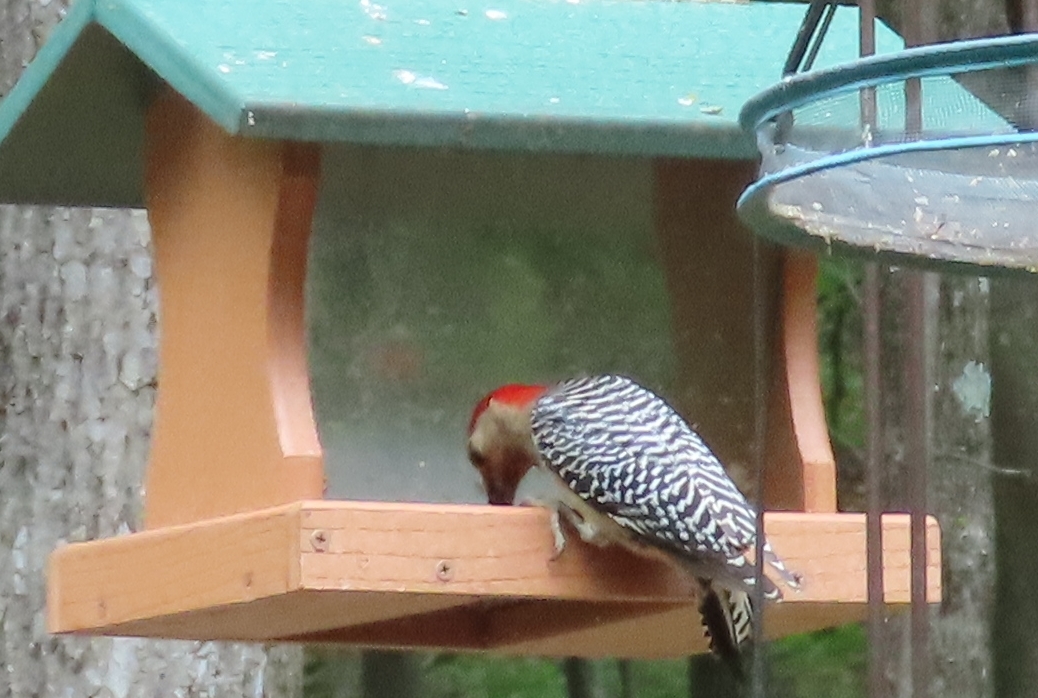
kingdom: Animalia
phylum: Chordata
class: Aves
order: Piciformes
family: Picidae
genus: Melanerpes
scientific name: Melanerpes carolinus
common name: Red-bellied woodpecker
